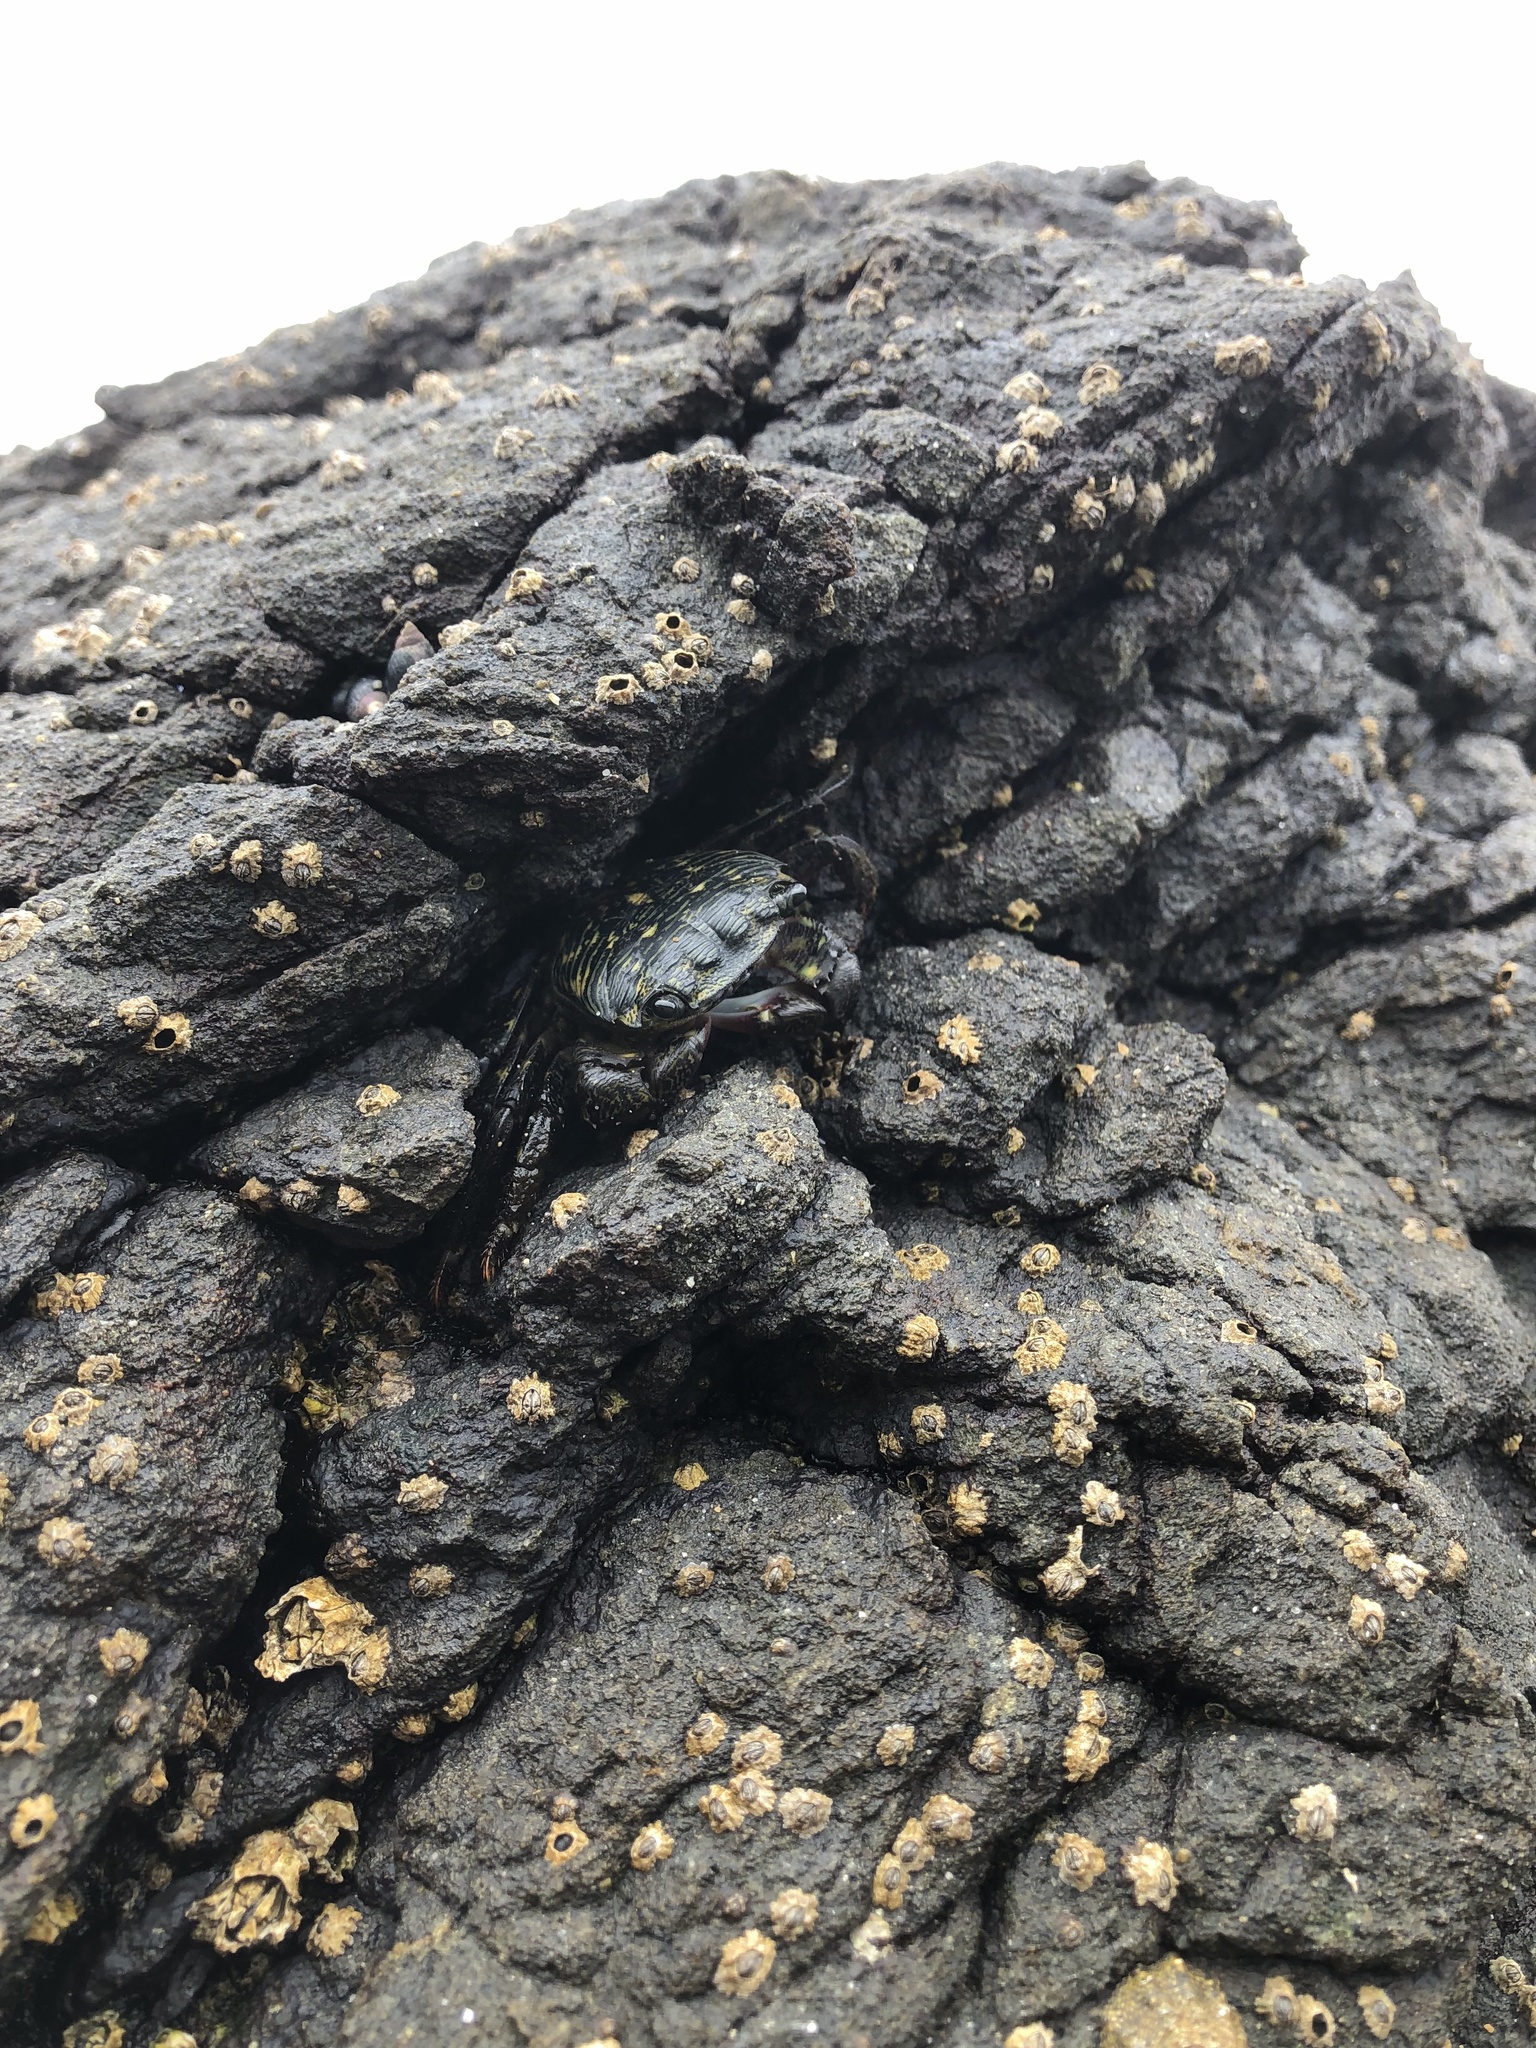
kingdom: Animalia
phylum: Arthropoda
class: Malacostraca
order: Decapoda
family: Grapsidae
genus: Pachygrapsus
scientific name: Pachygrapsus crassipes
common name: Striped shore crab
